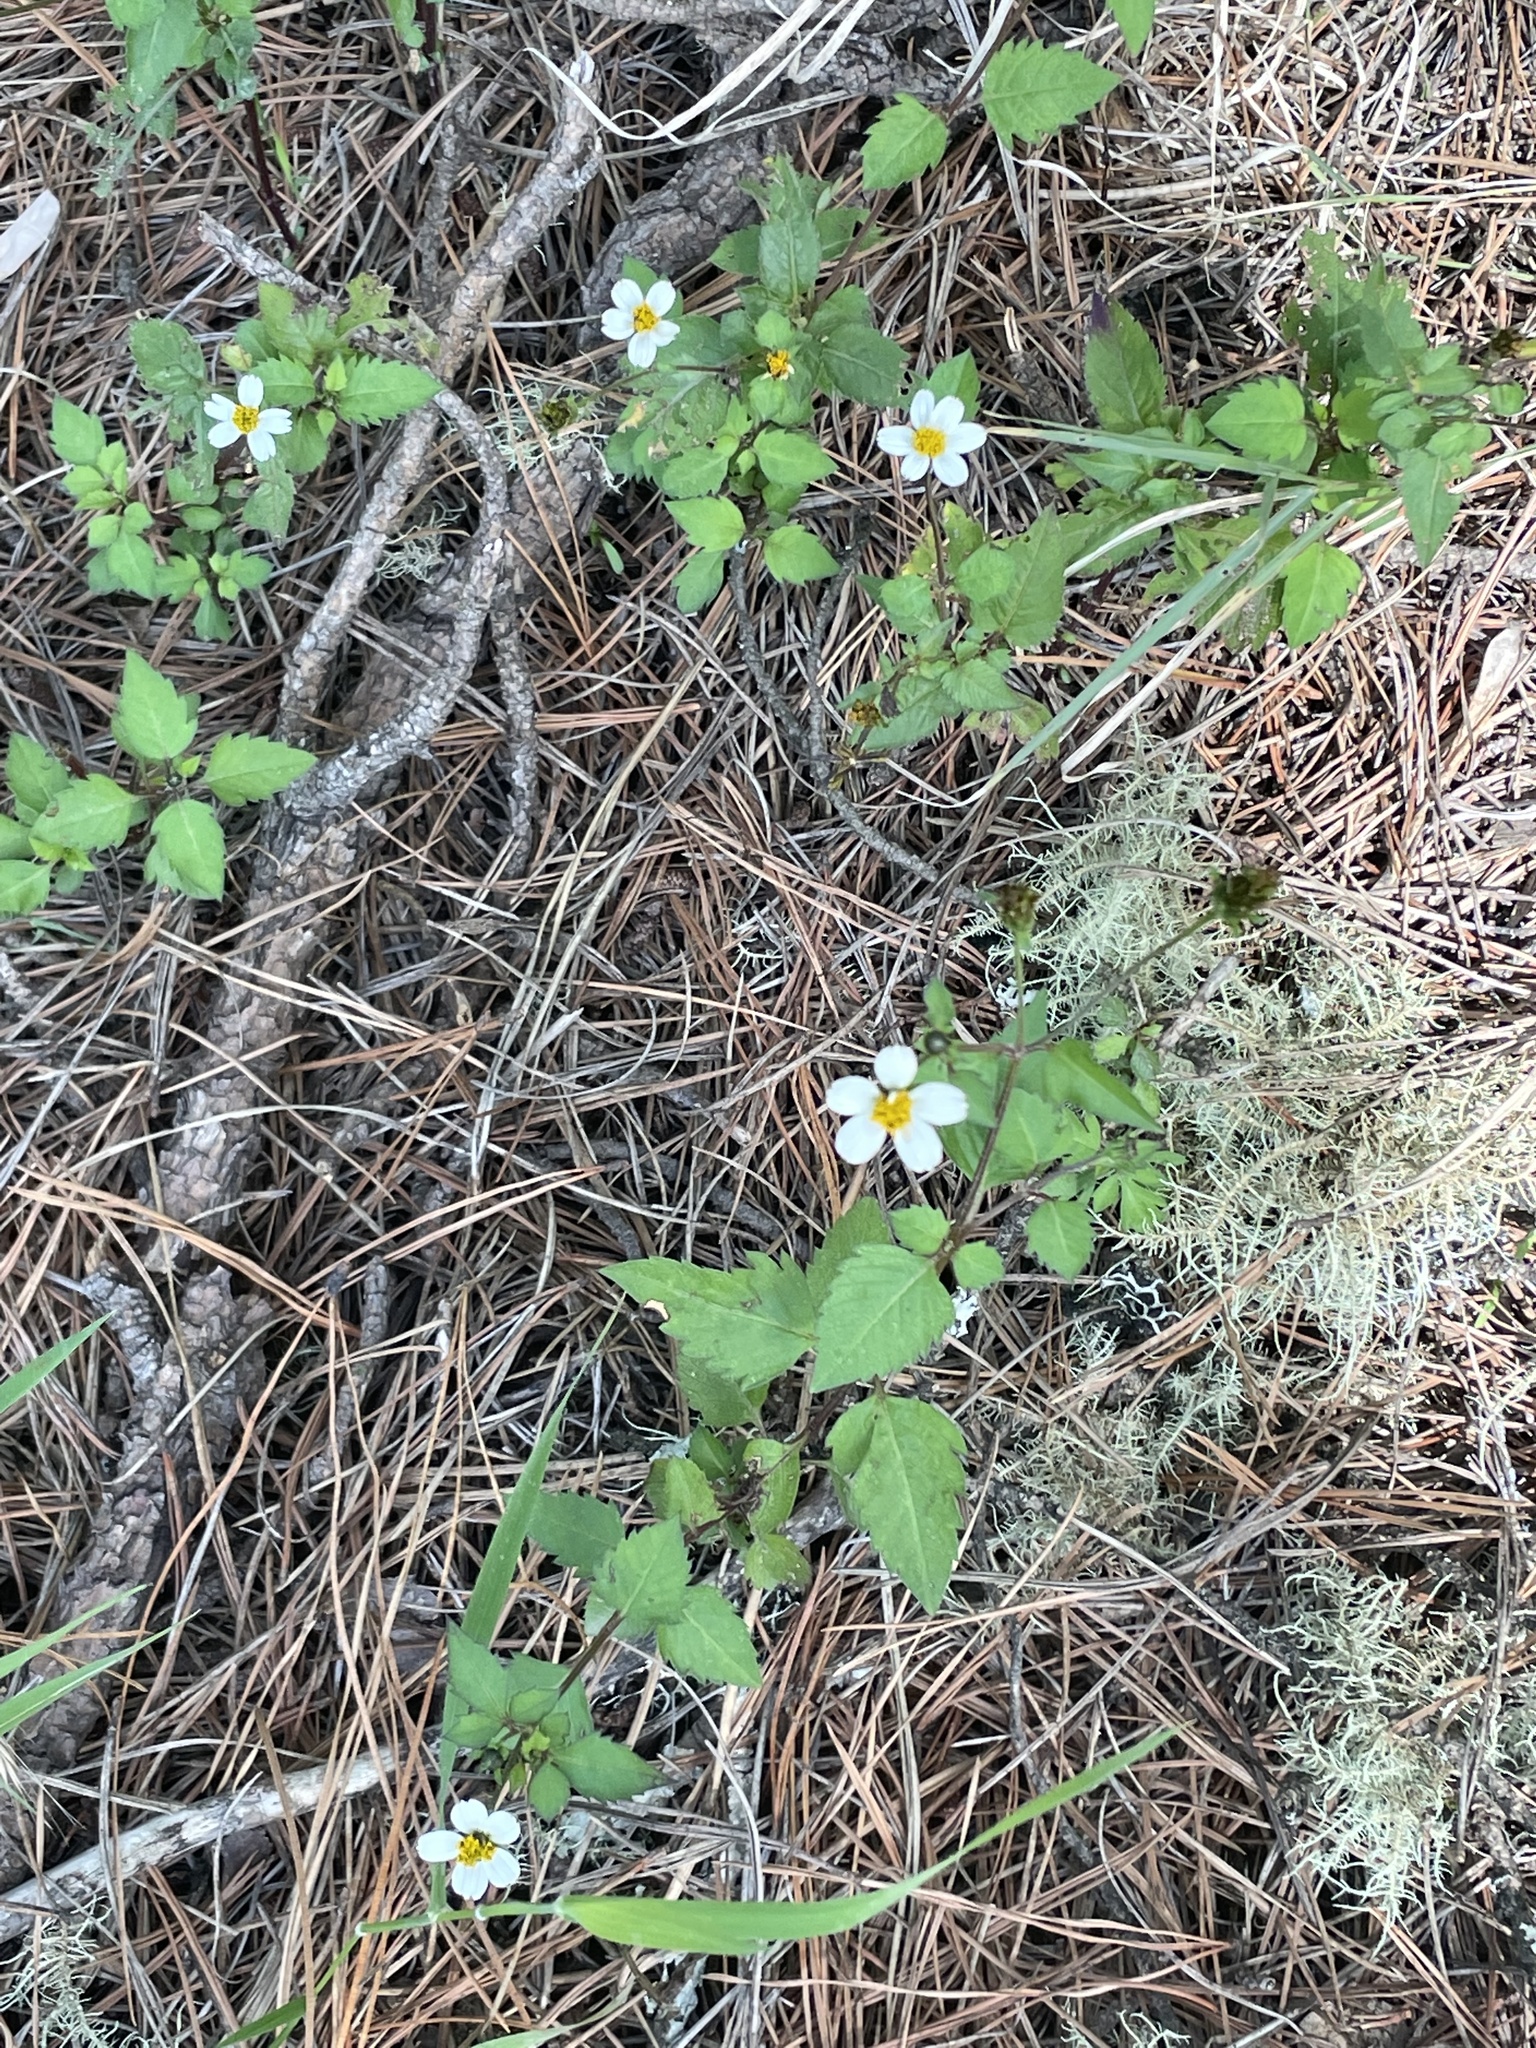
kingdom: Plantae
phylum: Tracheophyta
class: Magnoliopsida
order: Asterales
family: Asteraceae
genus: Bidens
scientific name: Bidens alba
